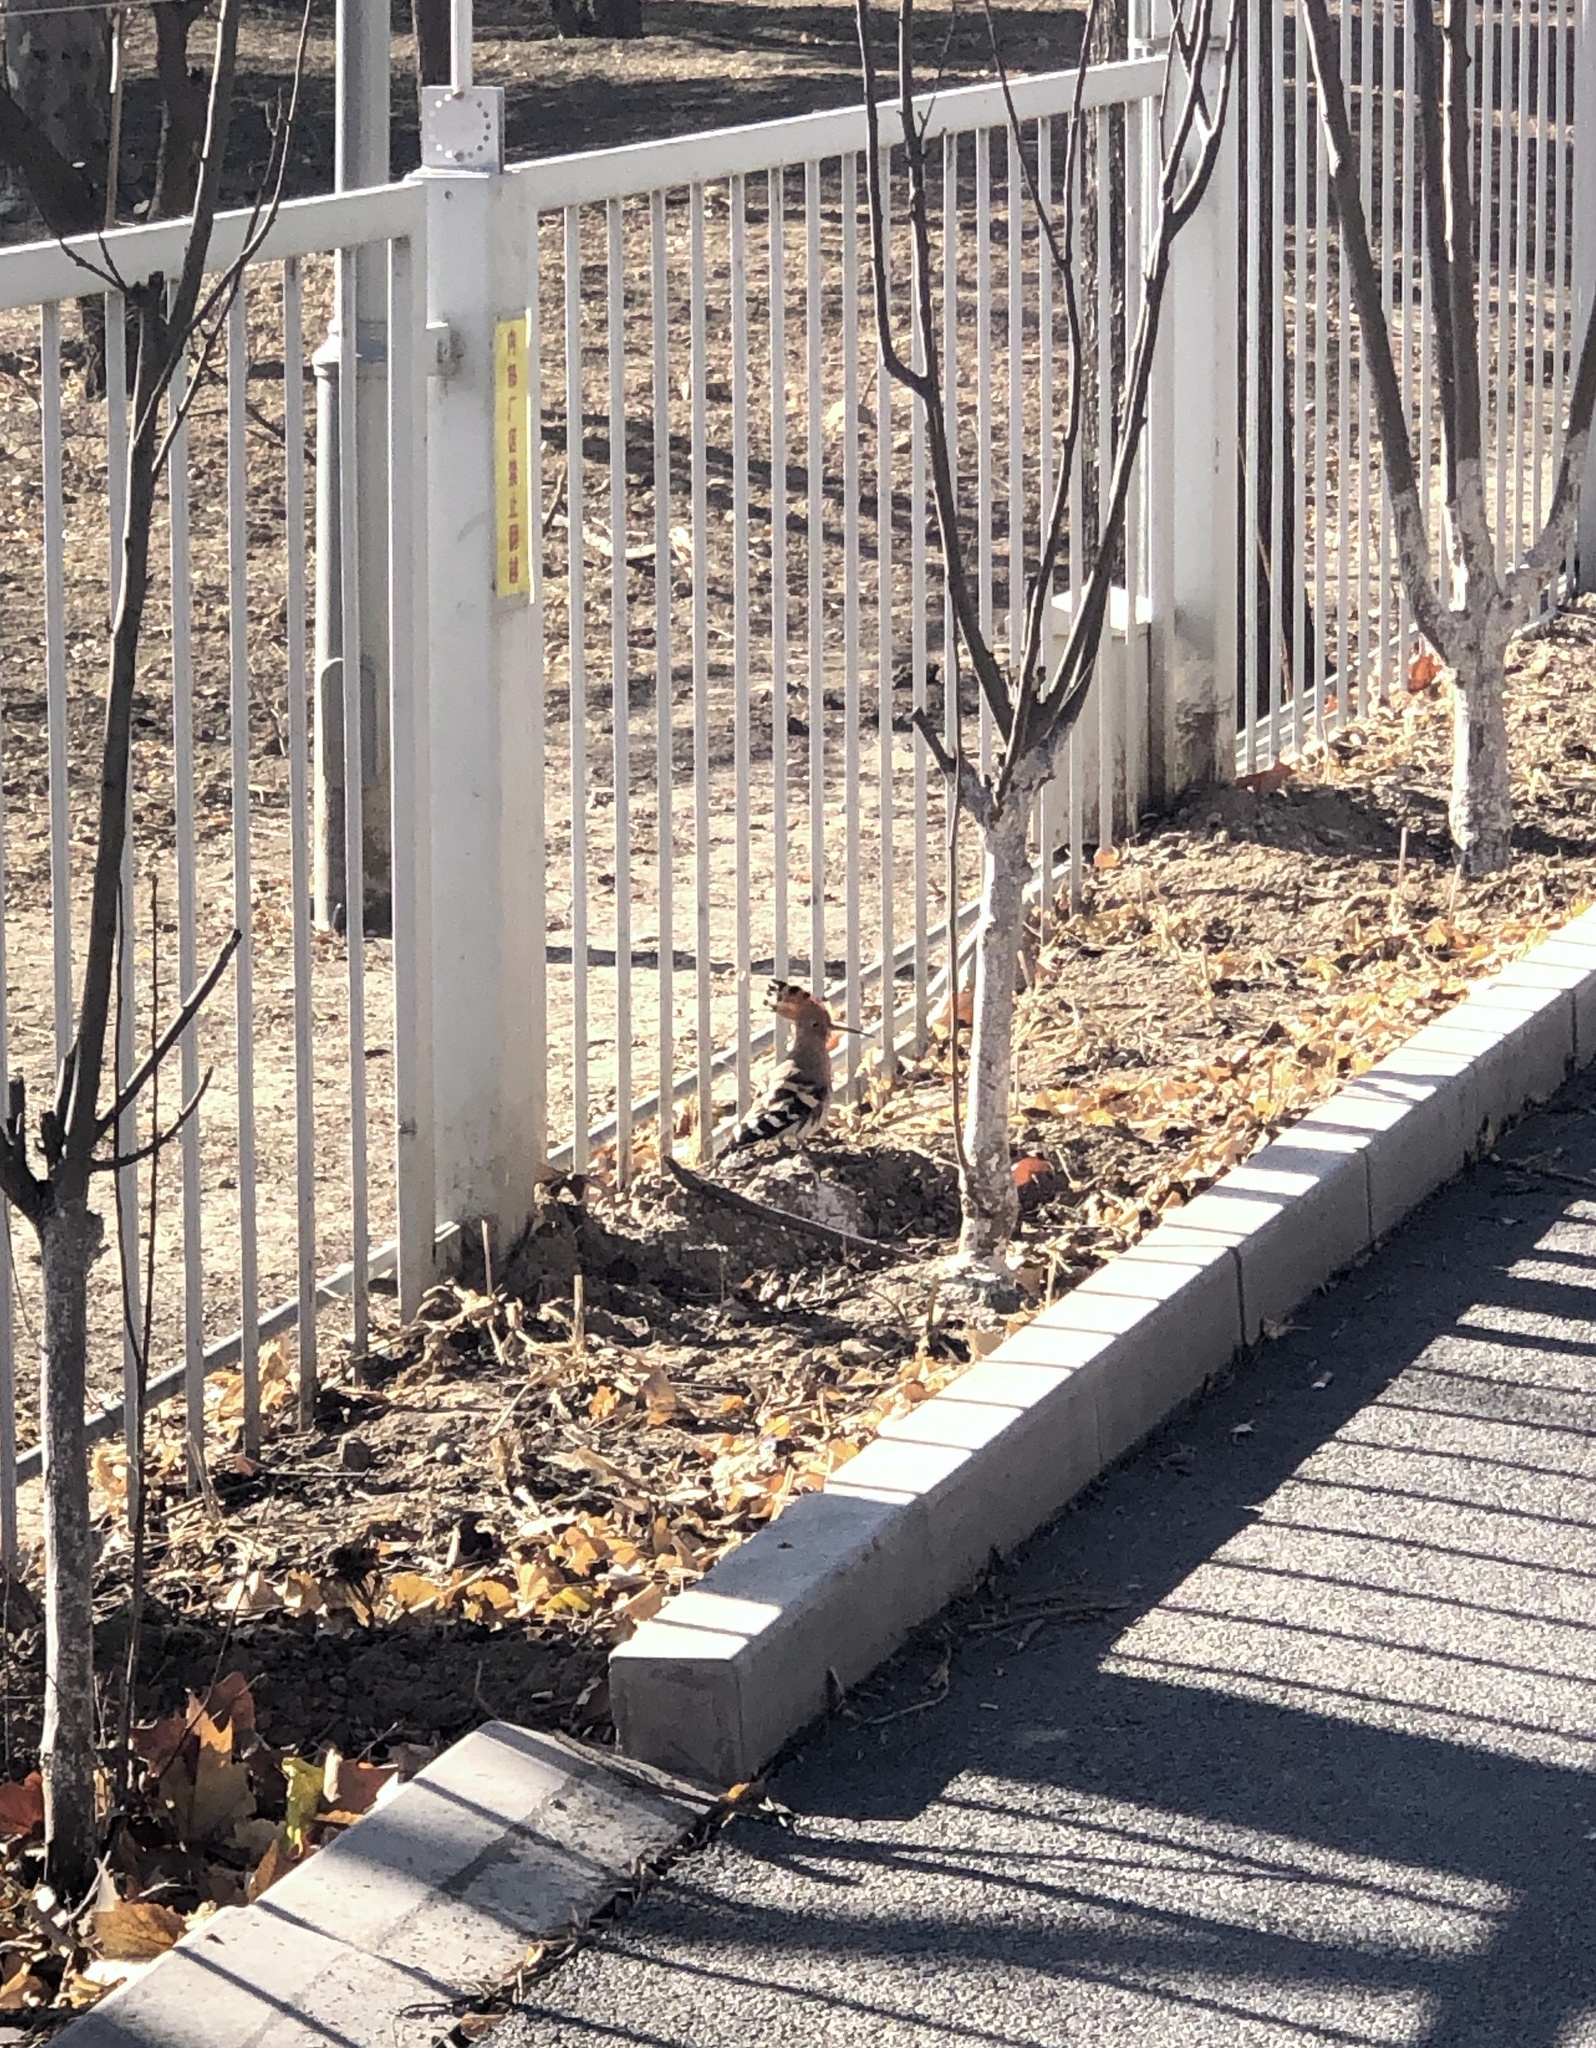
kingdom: Animalia
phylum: Chordata
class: Aves
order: Bucerotiformes
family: Upupidae
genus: Upupa
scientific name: Upupa epops
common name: Eurasian hoopoe
